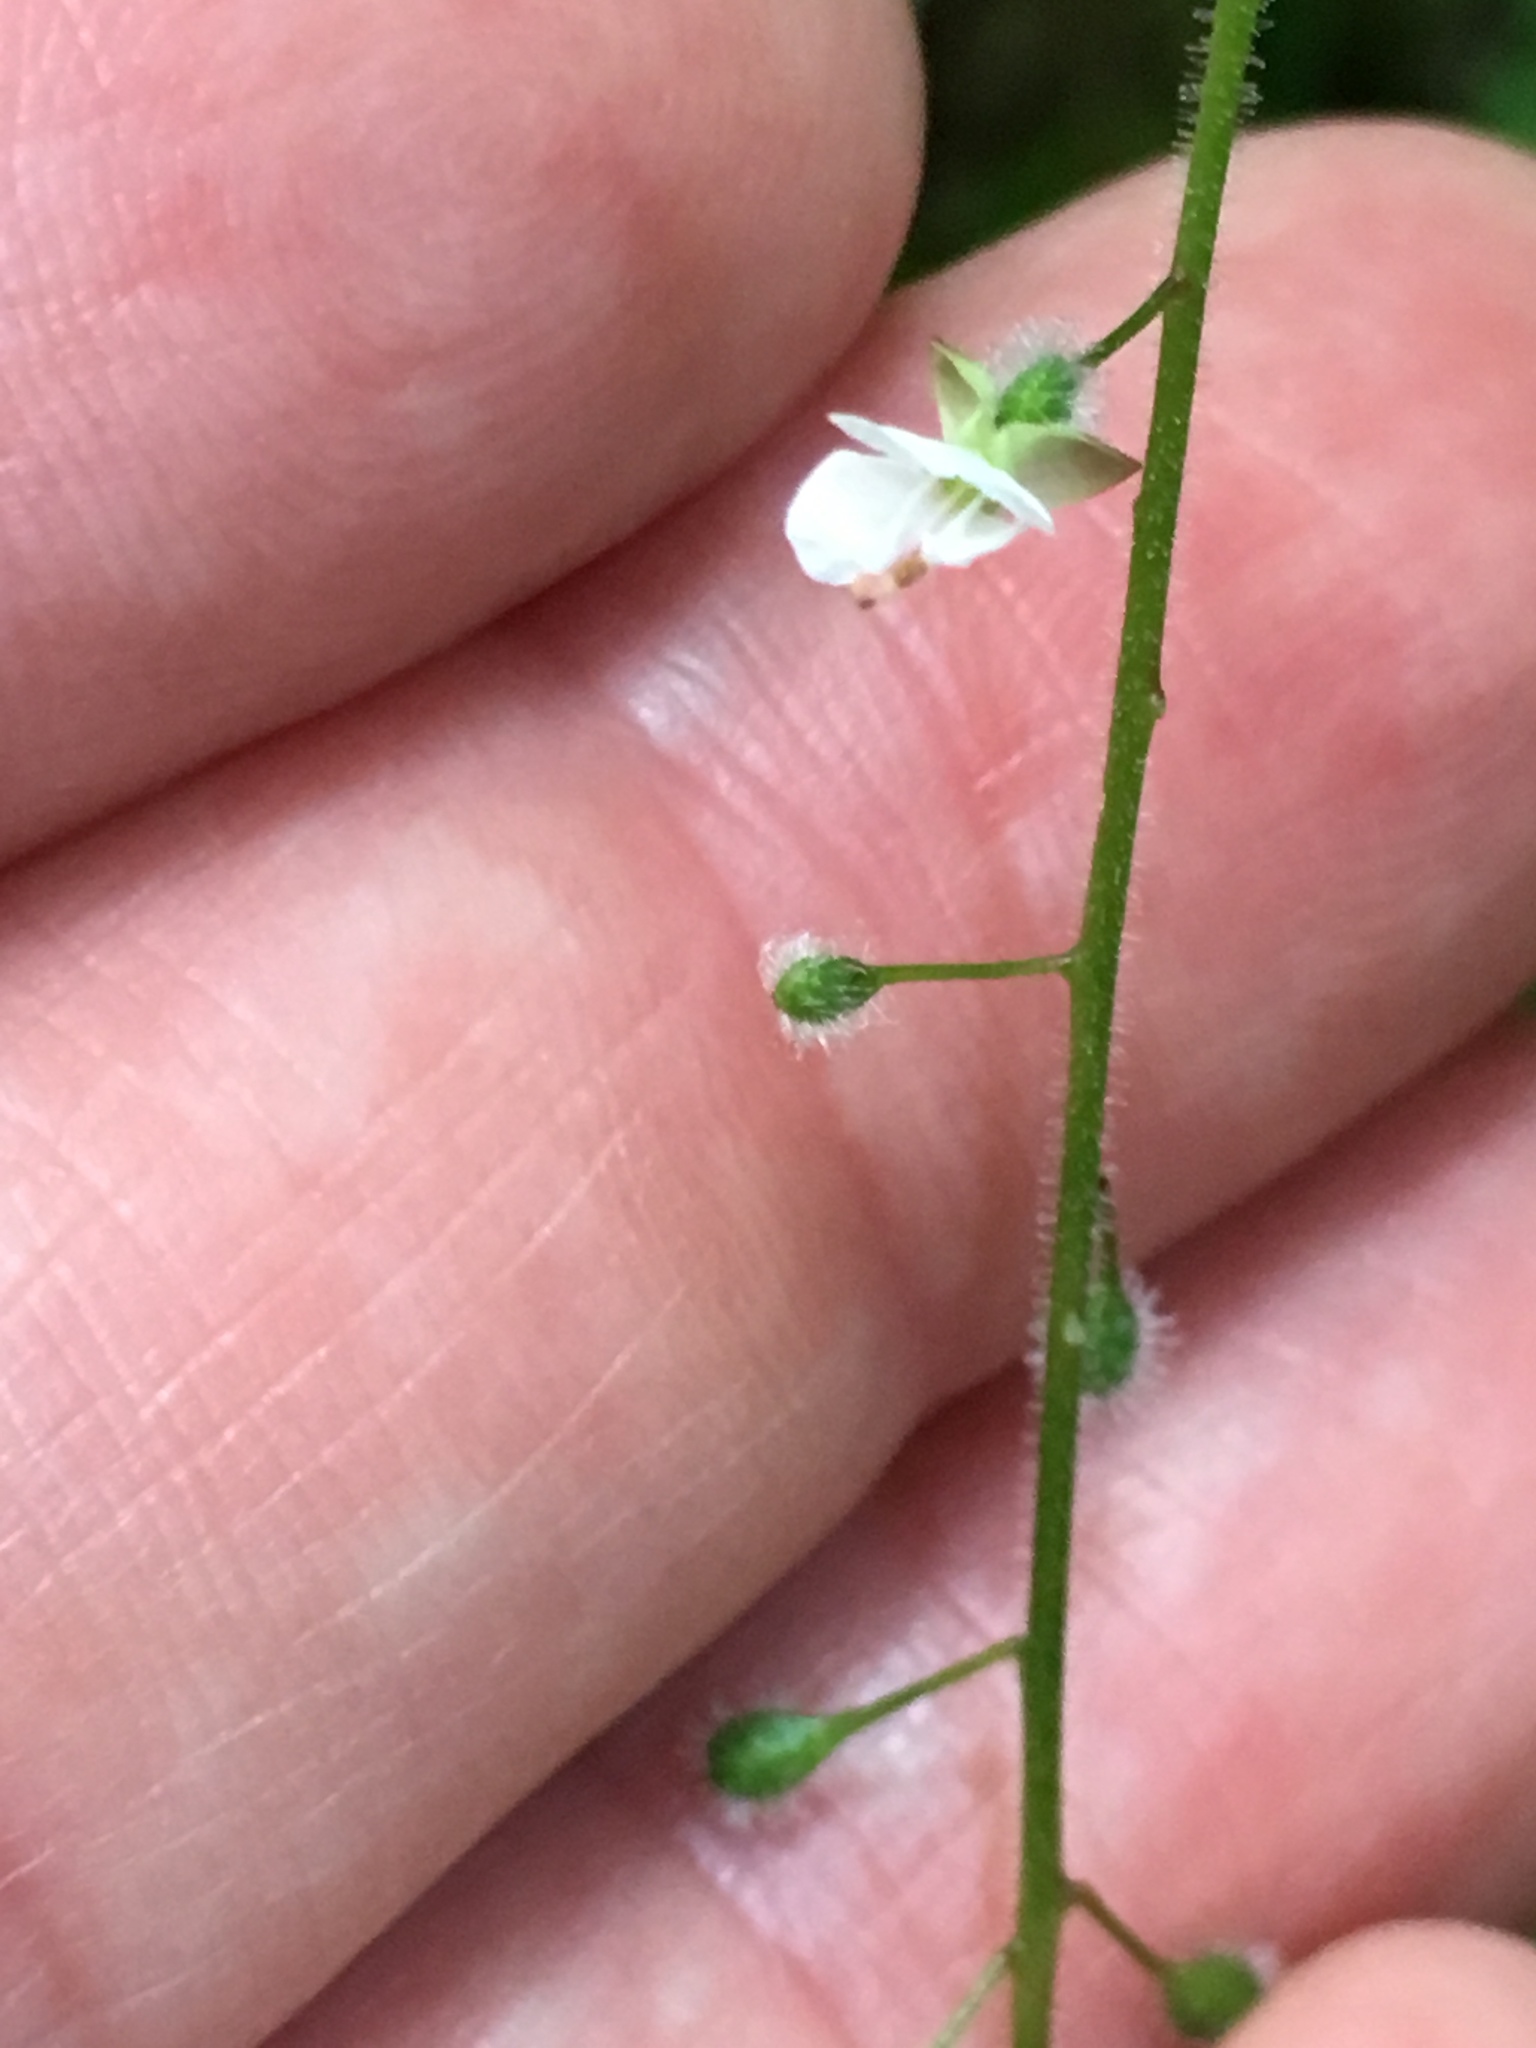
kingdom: Plantae
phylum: Tracheophyta
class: Magnoliopsida
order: Myrtales
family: Onagraceae
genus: Circaea
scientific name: Circaea lutetiana
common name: Enchanter's-nightshade
